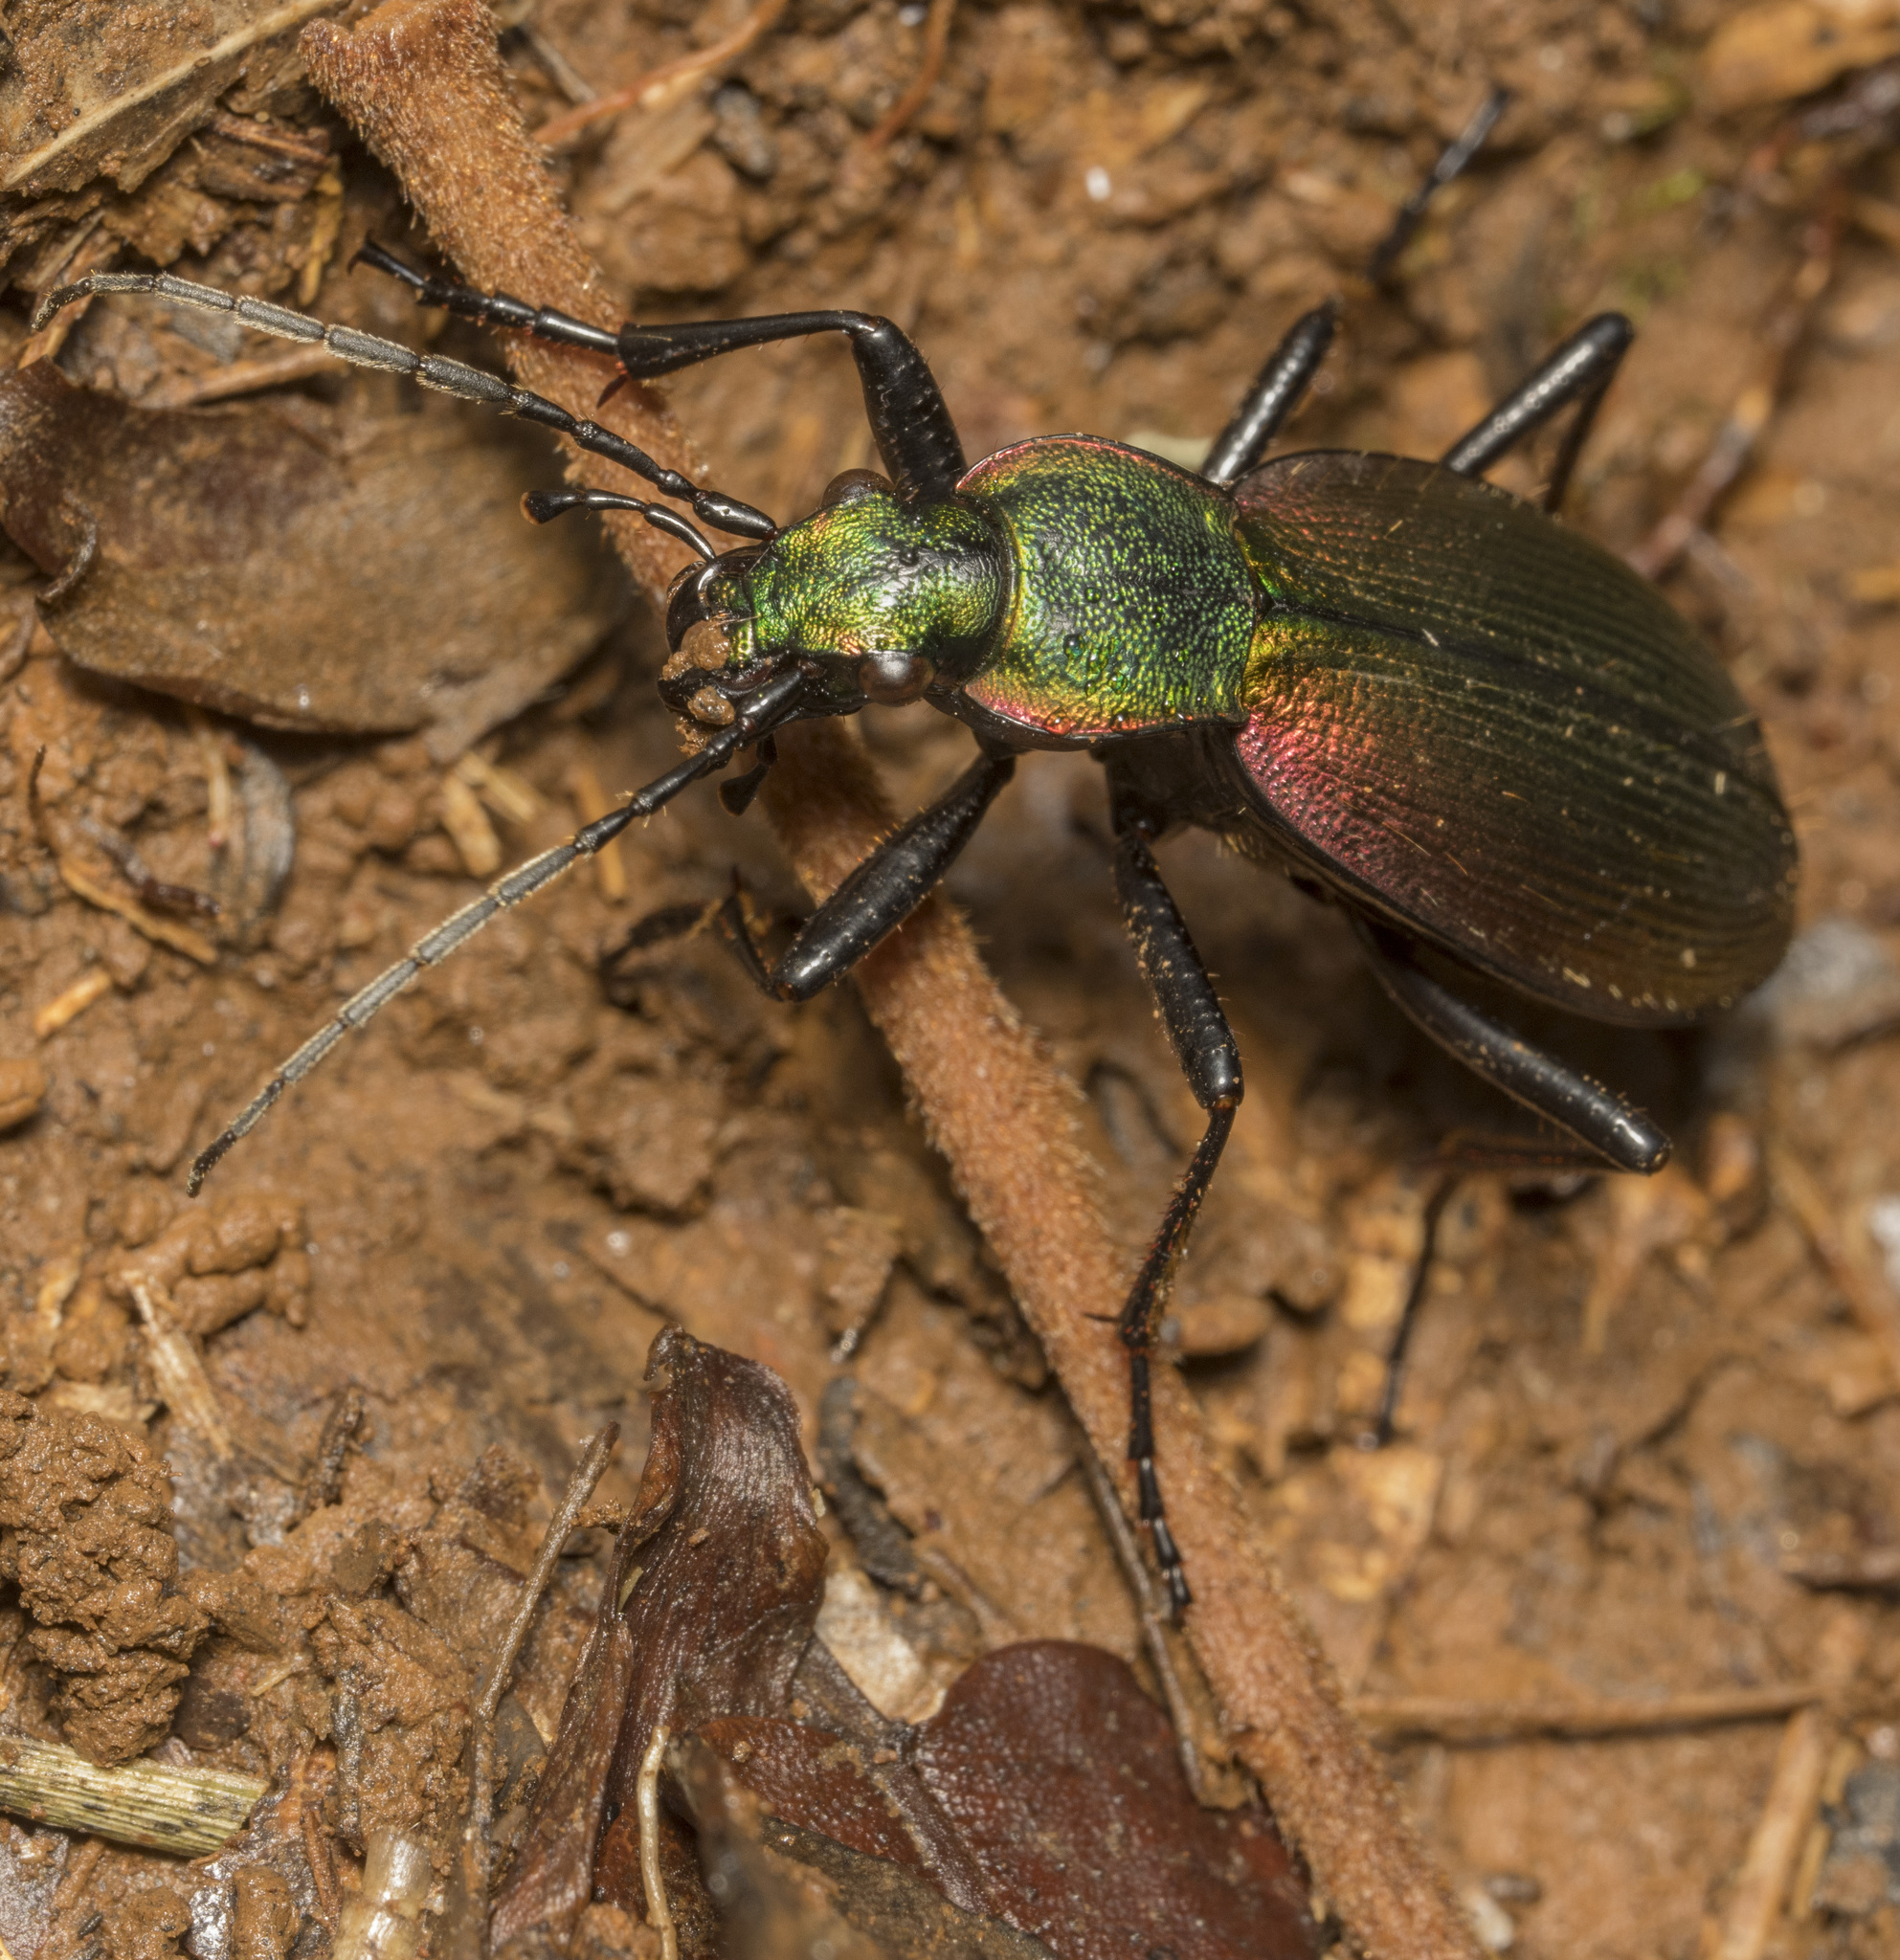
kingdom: Animalia
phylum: Arthropoda
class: Insecta
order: Coleoptera
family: Carabidae
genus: Ceroglossus
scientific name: Ceroglossus chilensis
